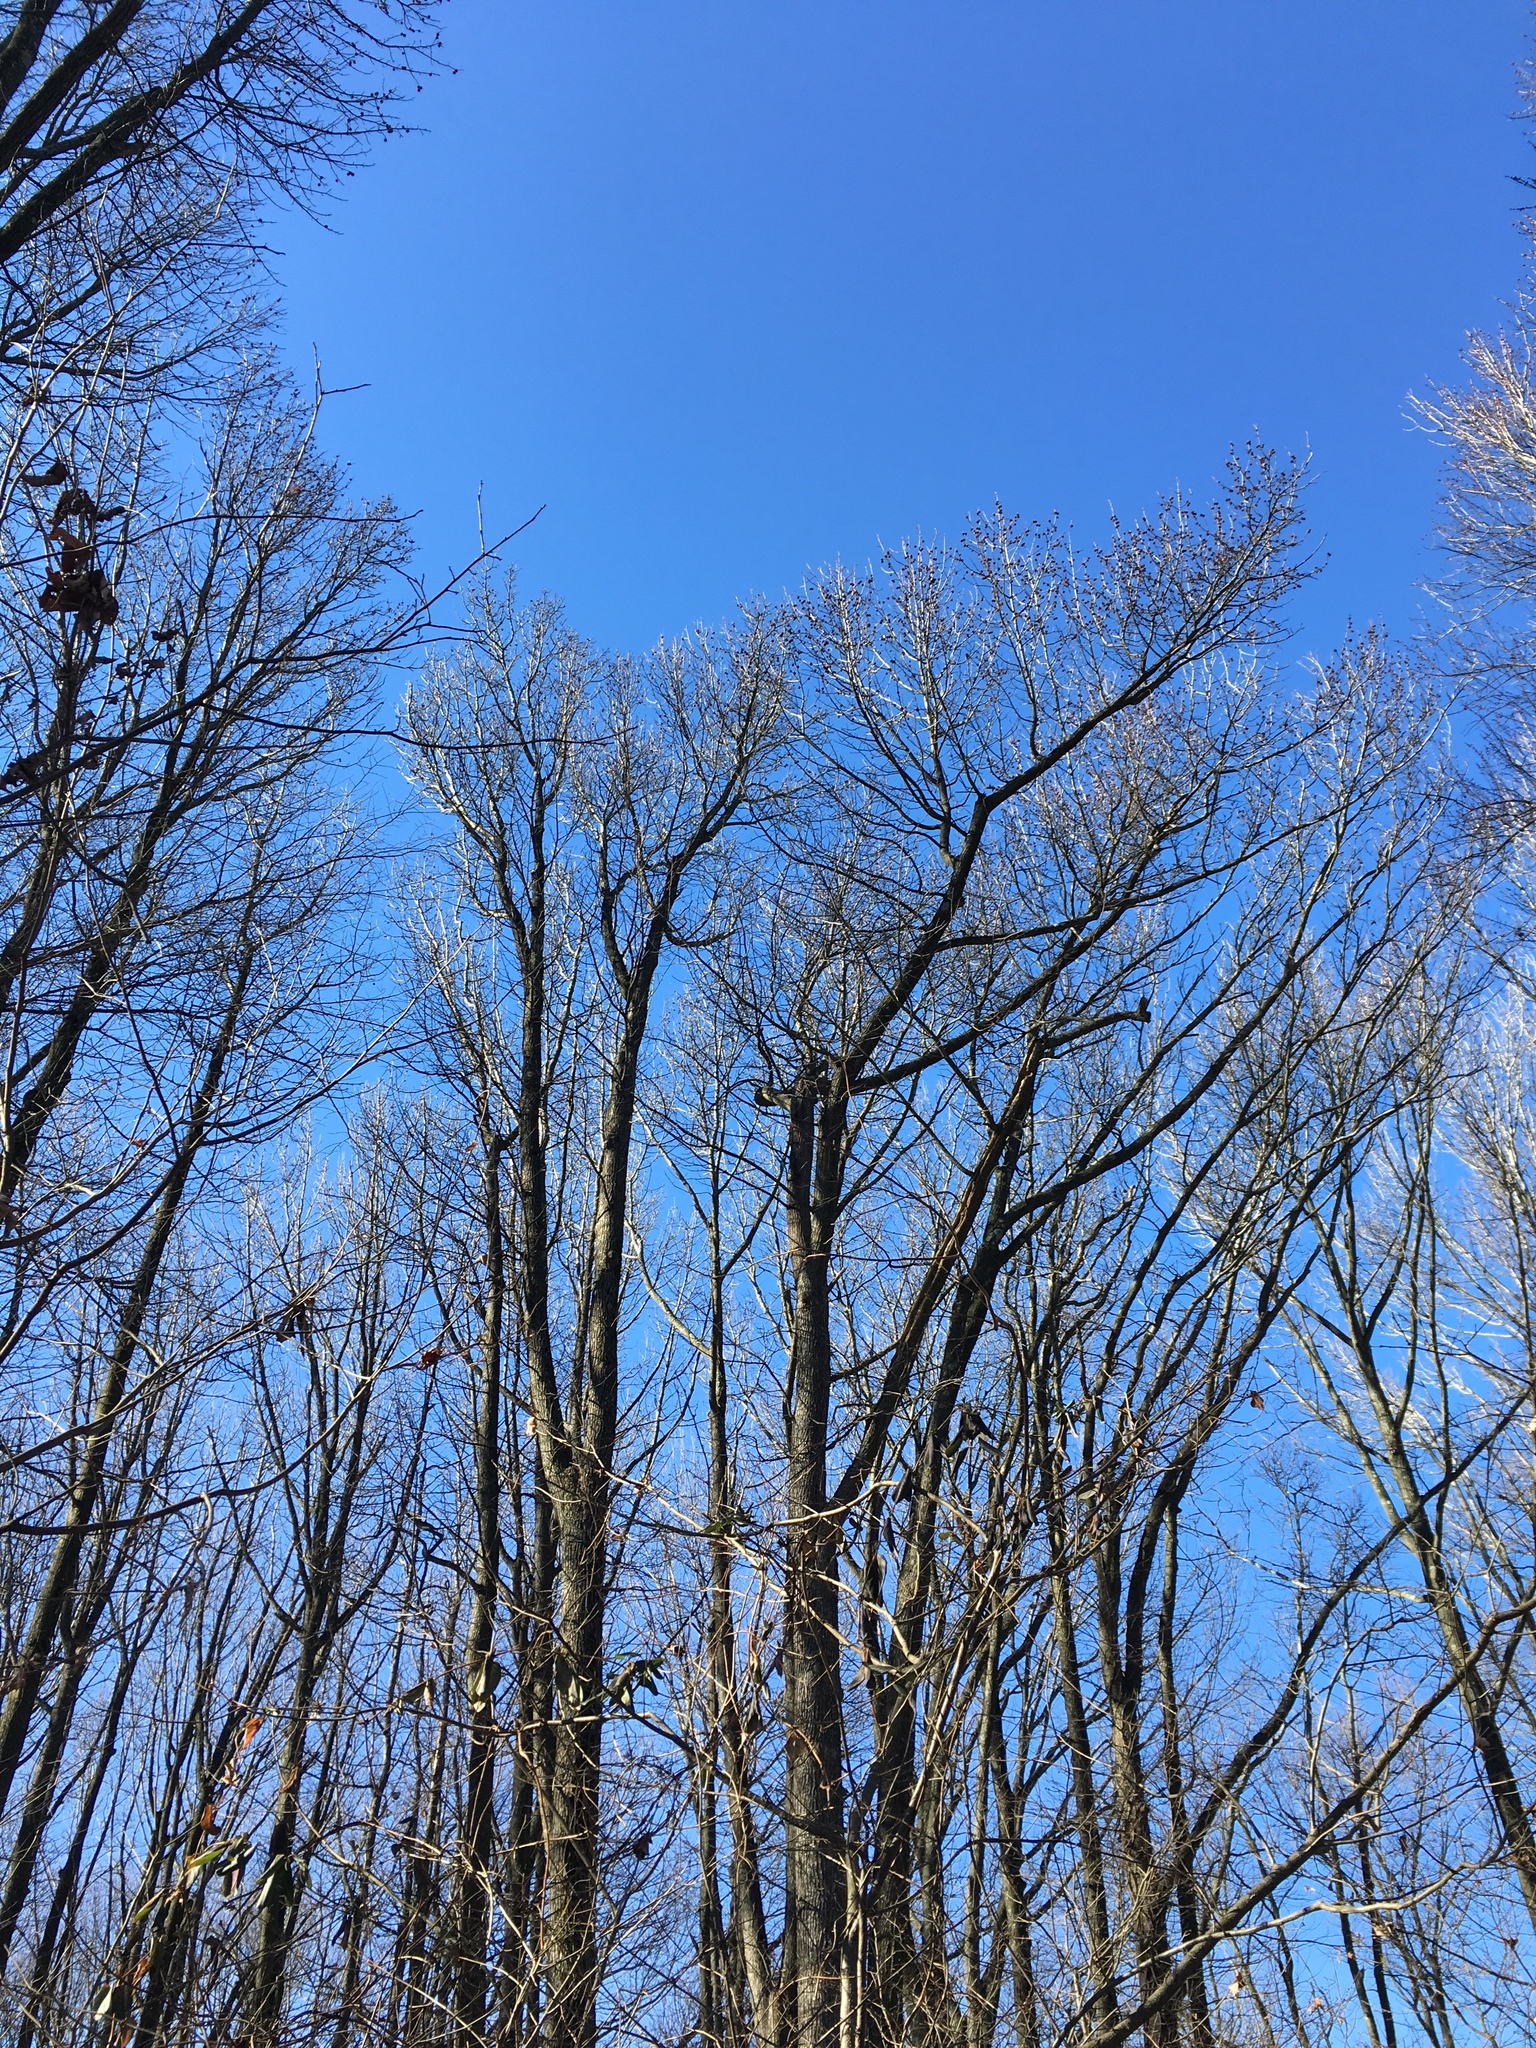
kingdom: Plantae
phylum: Tracheophyta
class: Magnoliopsida
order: Saxifragales
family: Altingiaceae
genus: Liquidambar
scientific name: Liquidambar styraciflua
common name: Sweet gum
